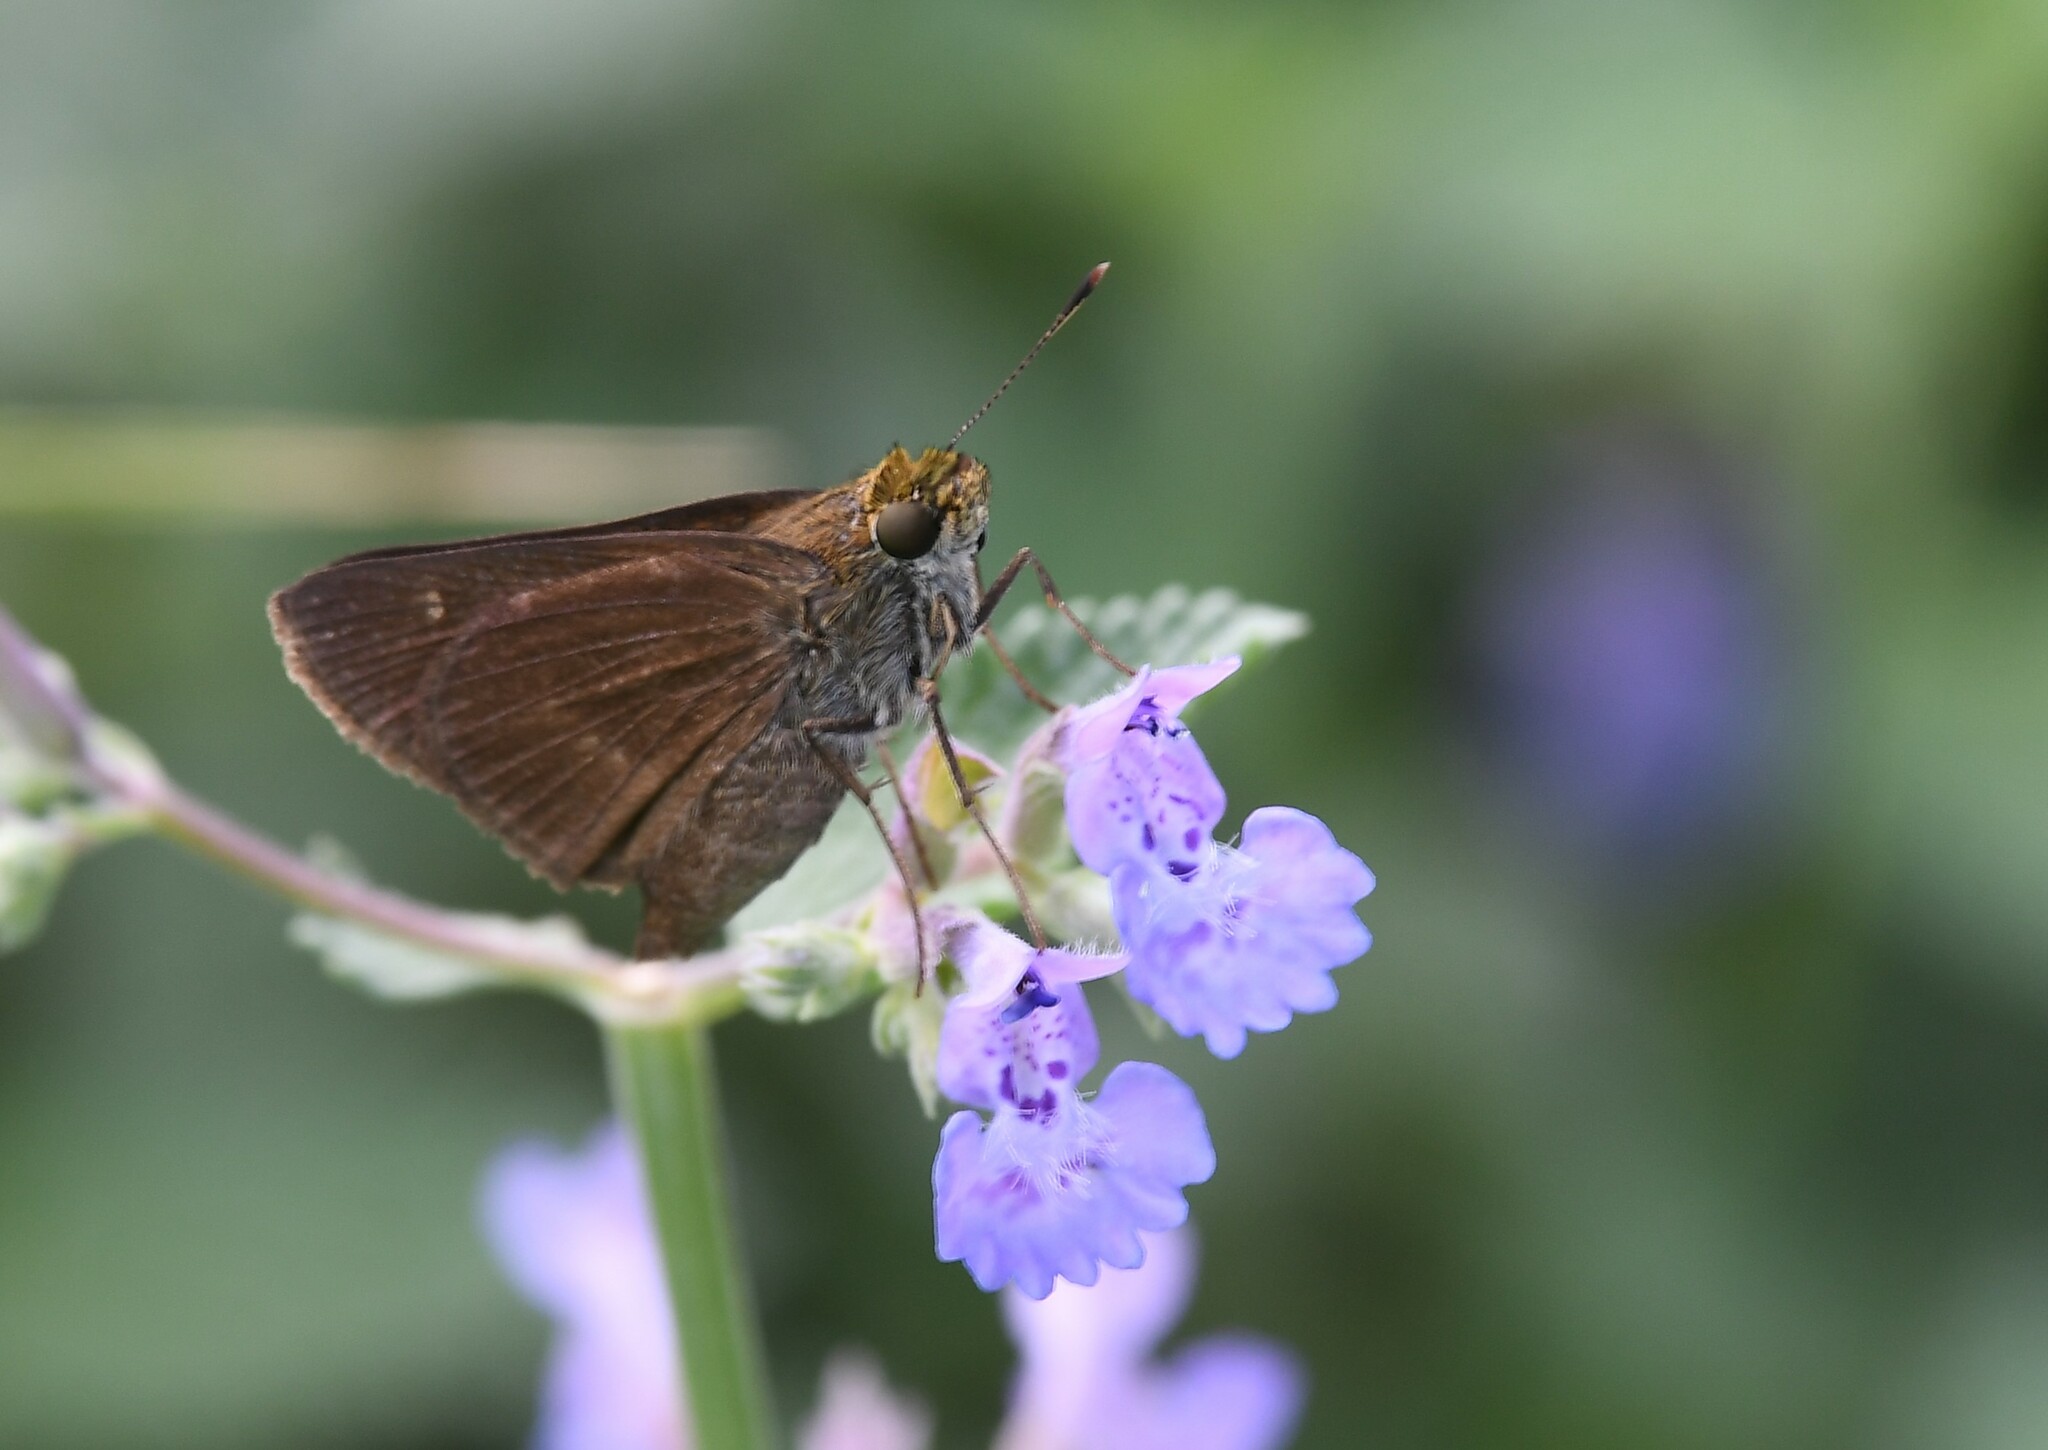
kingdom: Animalia
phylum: Arthropoda
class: Insecta
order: Lepidoptera
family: Hesperiidae
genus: Euphyes
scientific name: Euphyes vestris
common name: Dun skipper
